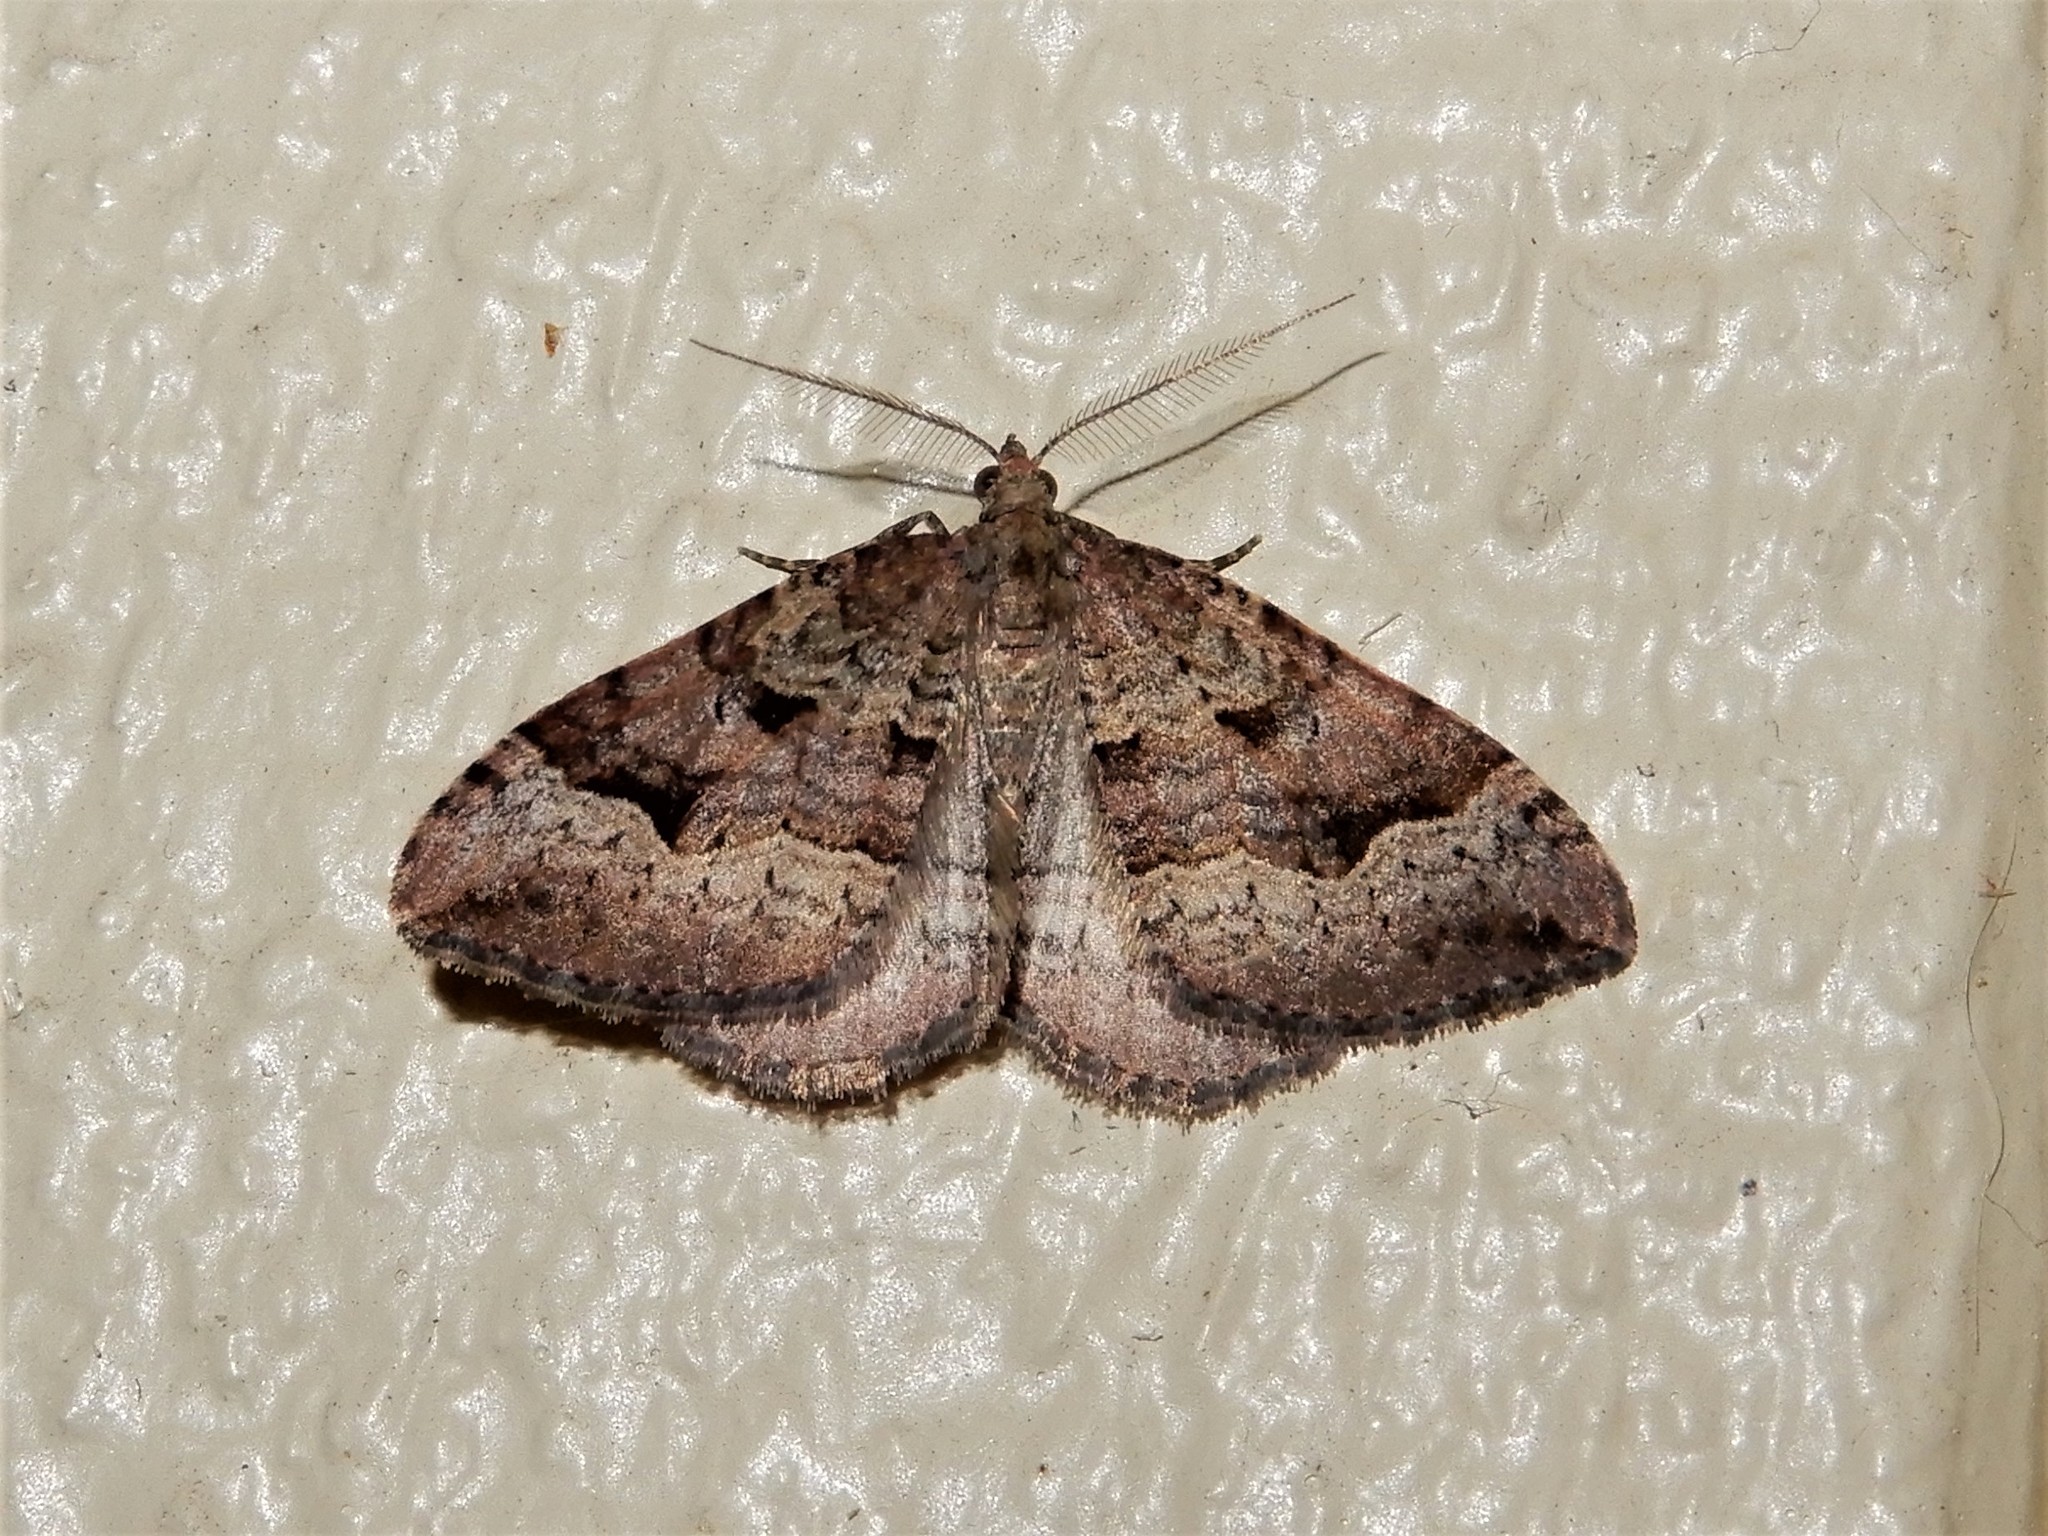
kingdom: Animalia
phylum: Arthropoda
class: Insecta
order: Lepidoptera
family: Geometridae
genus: Epyaxa
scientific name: Epyaxa rosearia
